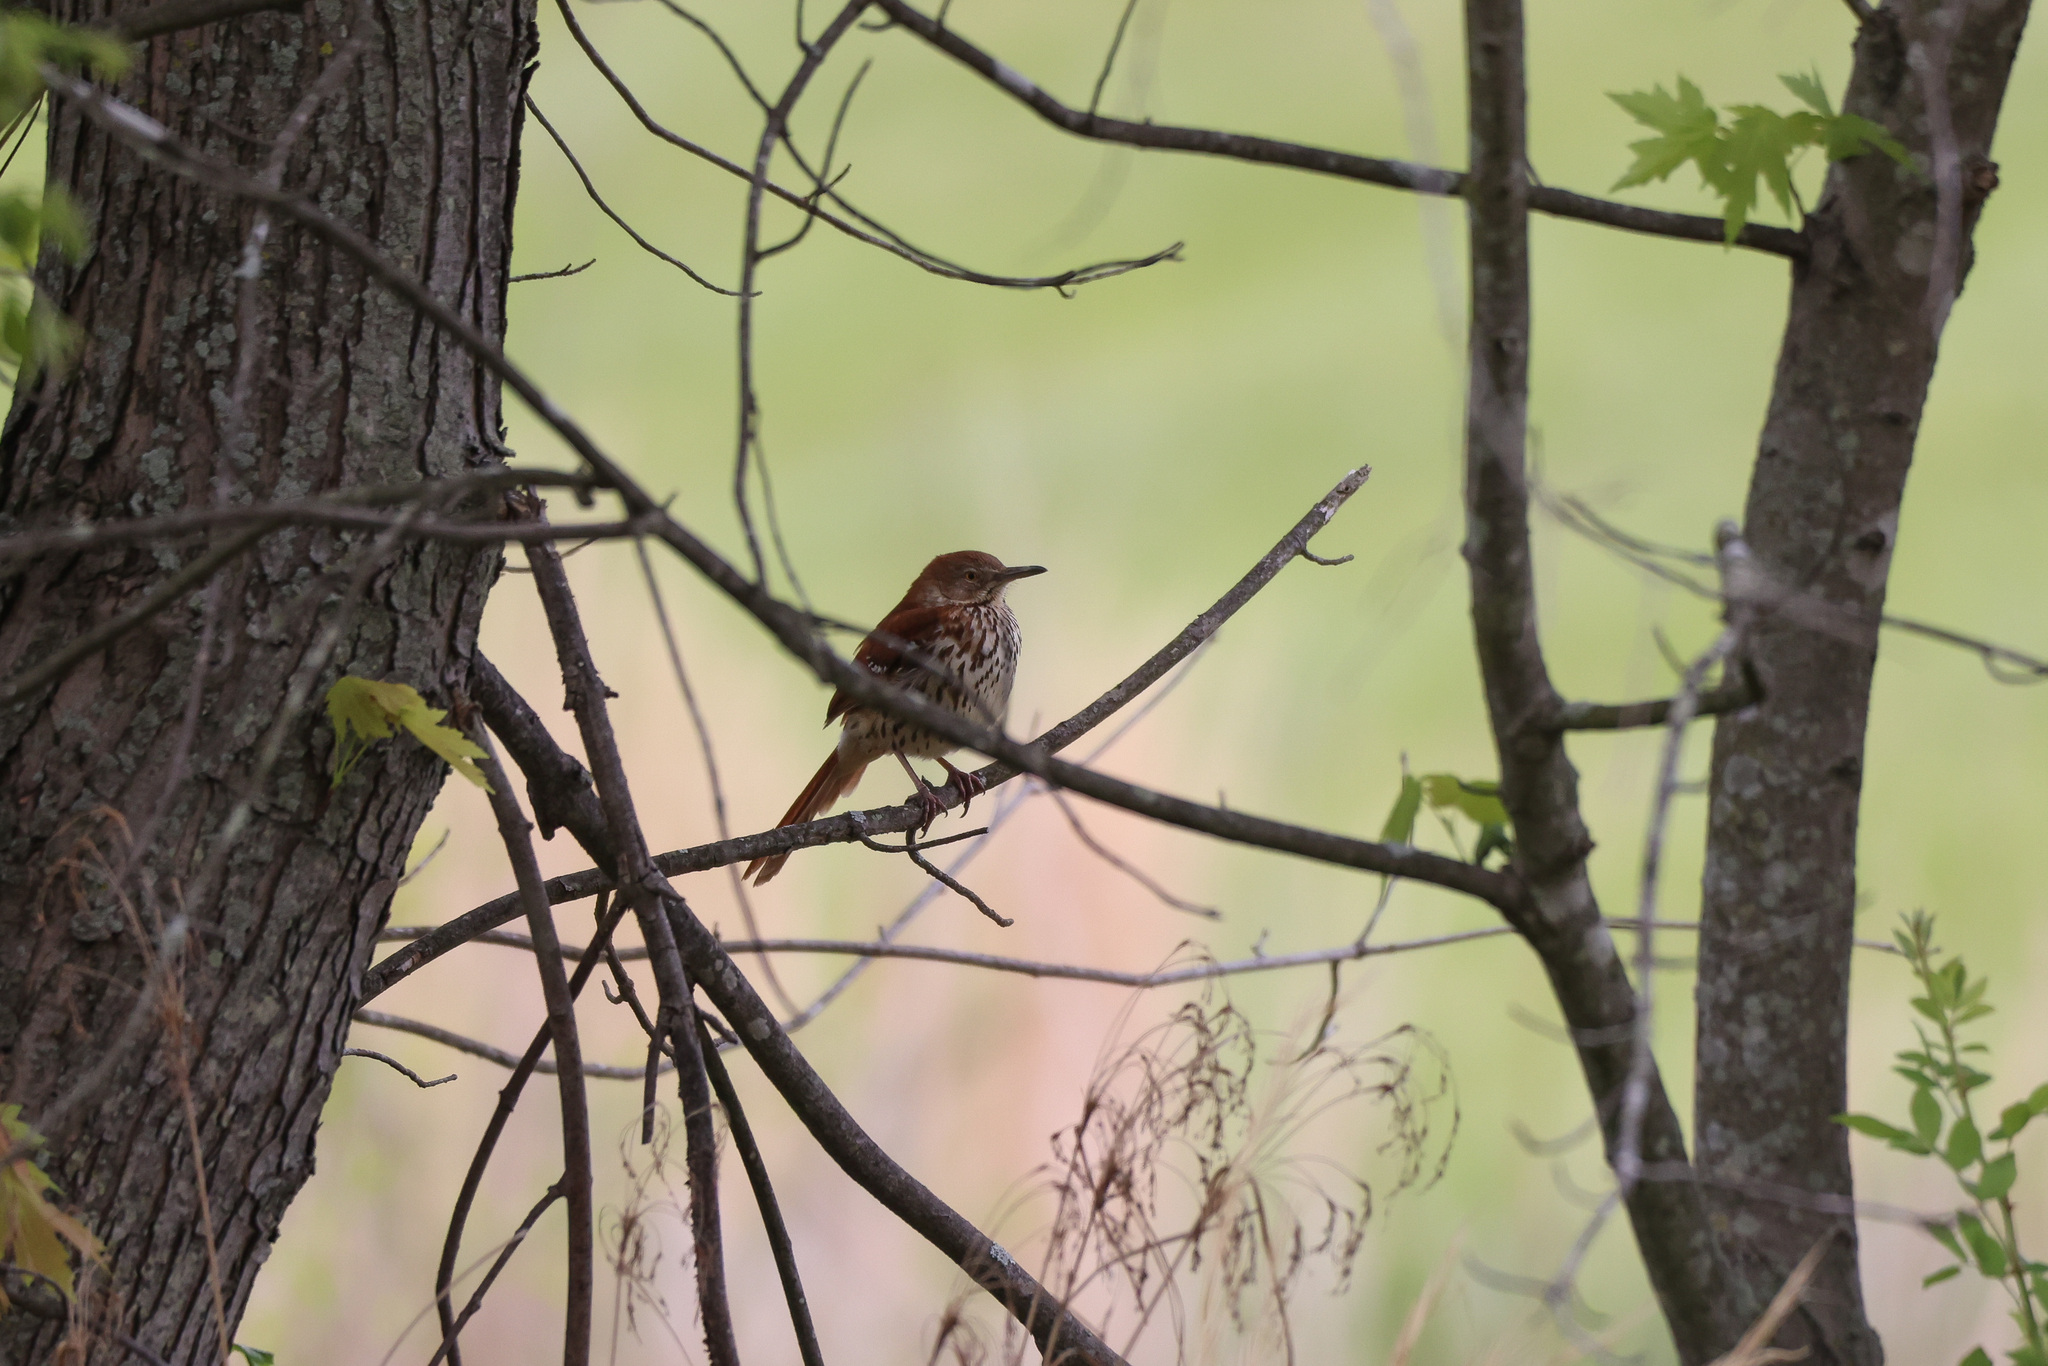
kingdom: Animalia
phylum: Chordata
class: Aves
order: Passeriformes
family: Mimidae
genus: Toxostoma
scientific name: Toxostoma rufum
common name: Brown thrasher
